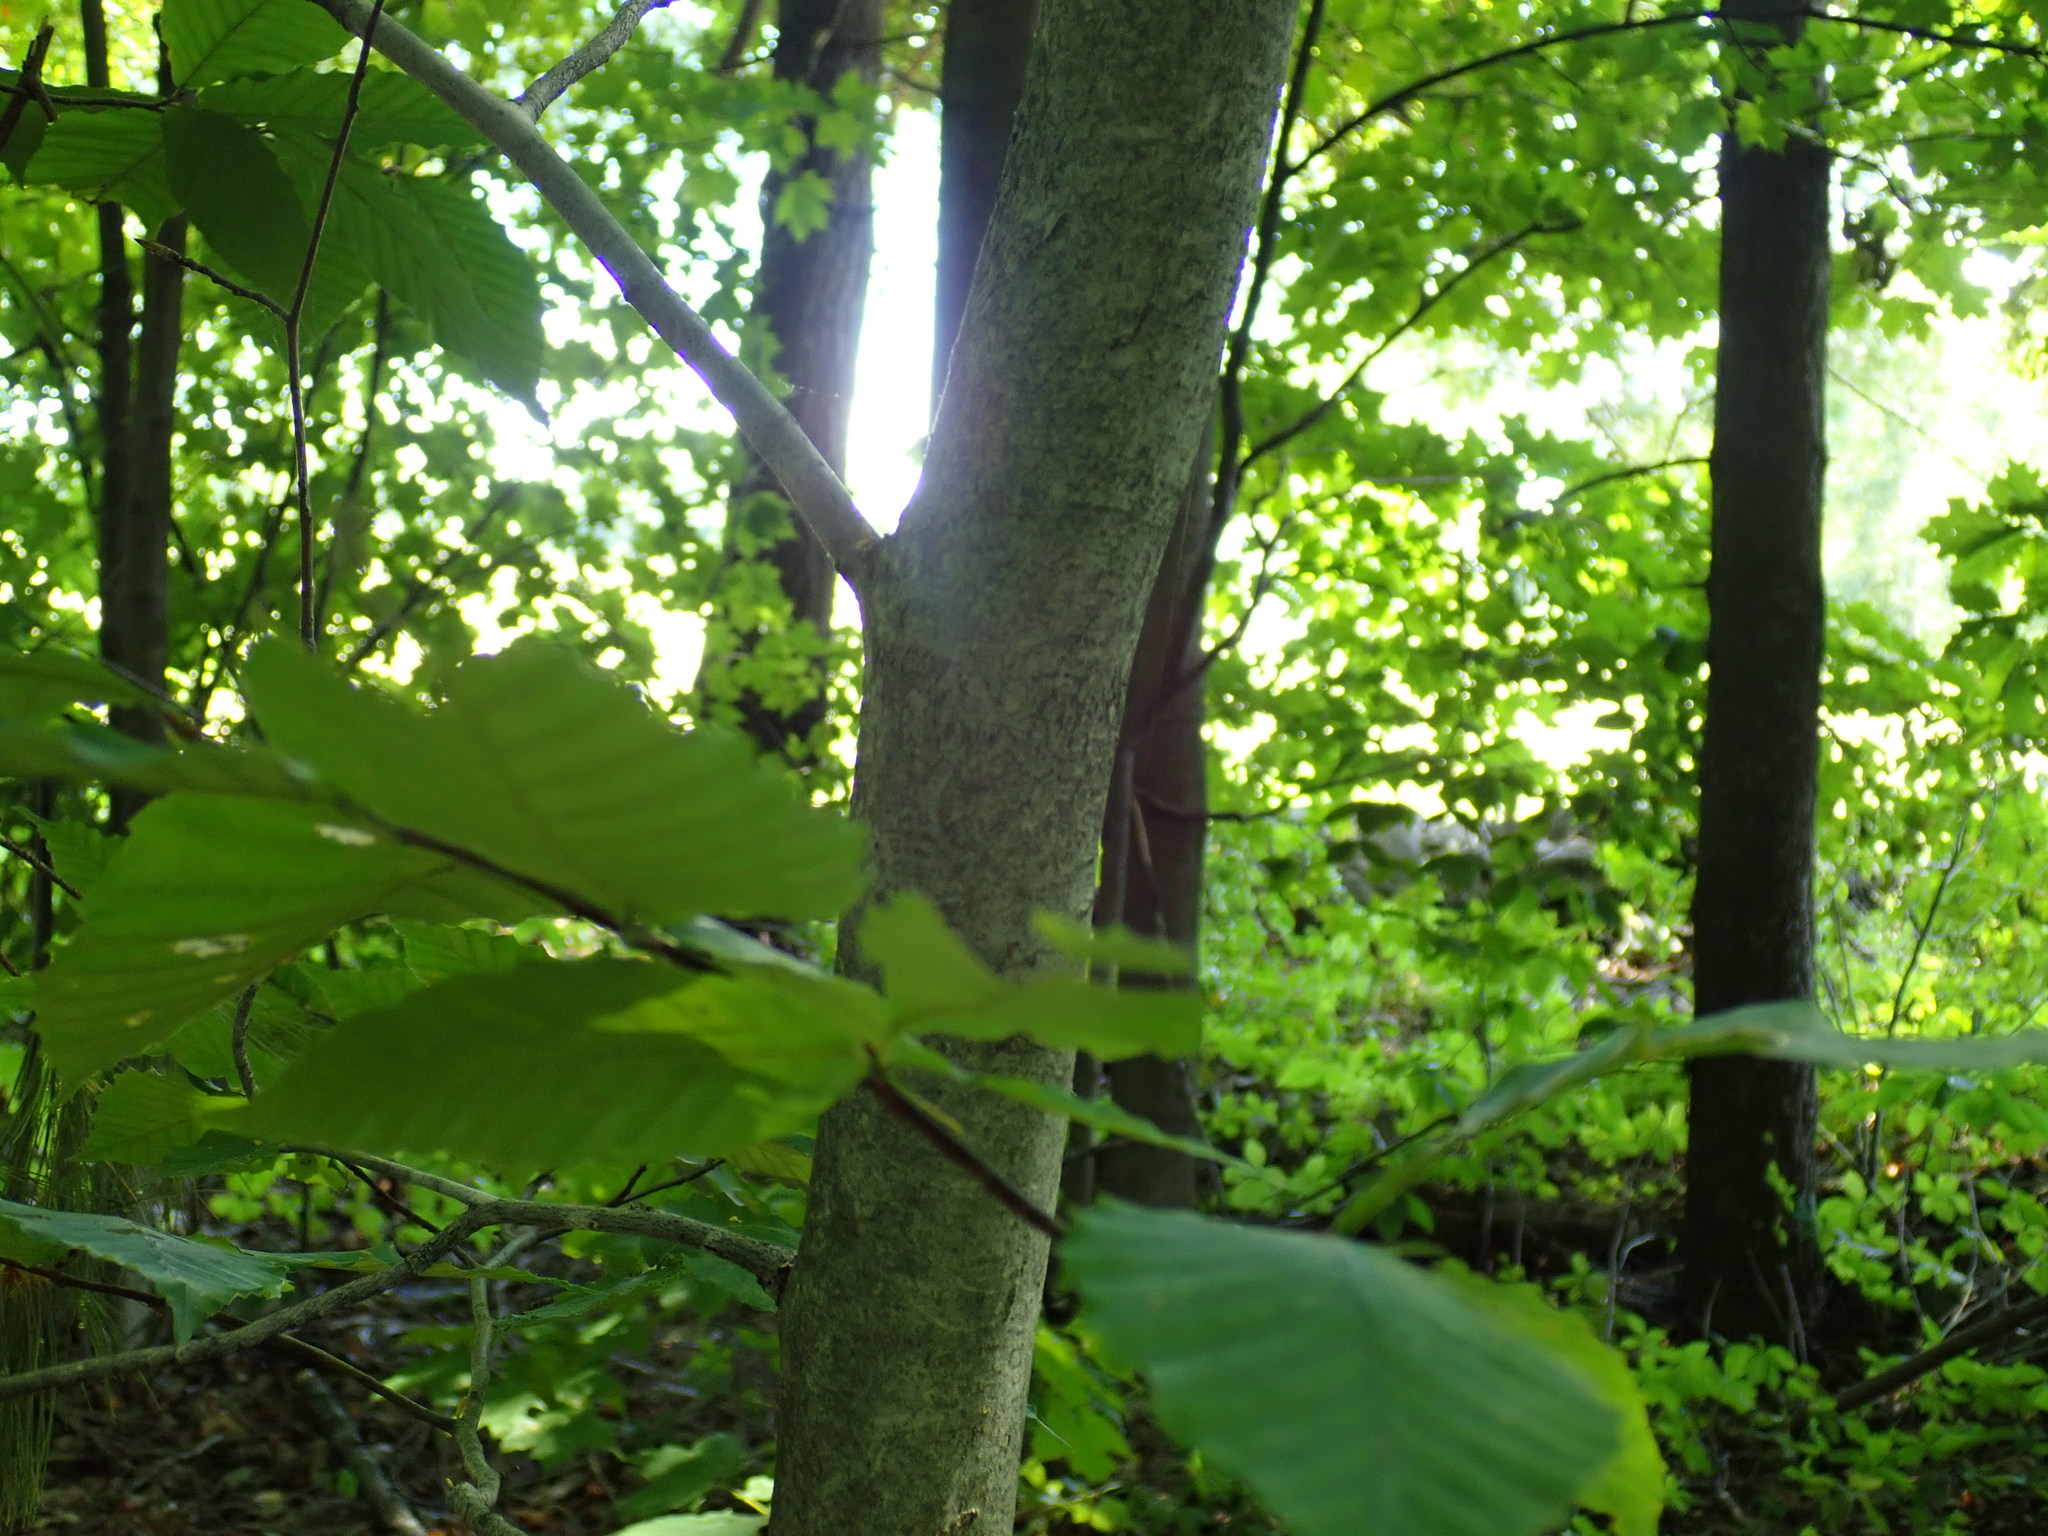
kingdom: Plantae
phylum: Tracheophyta
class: Magnoliopsida
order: Fagales
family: Fagaceae
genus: Fagus
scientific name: Fagus grandifolia
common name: American beech
